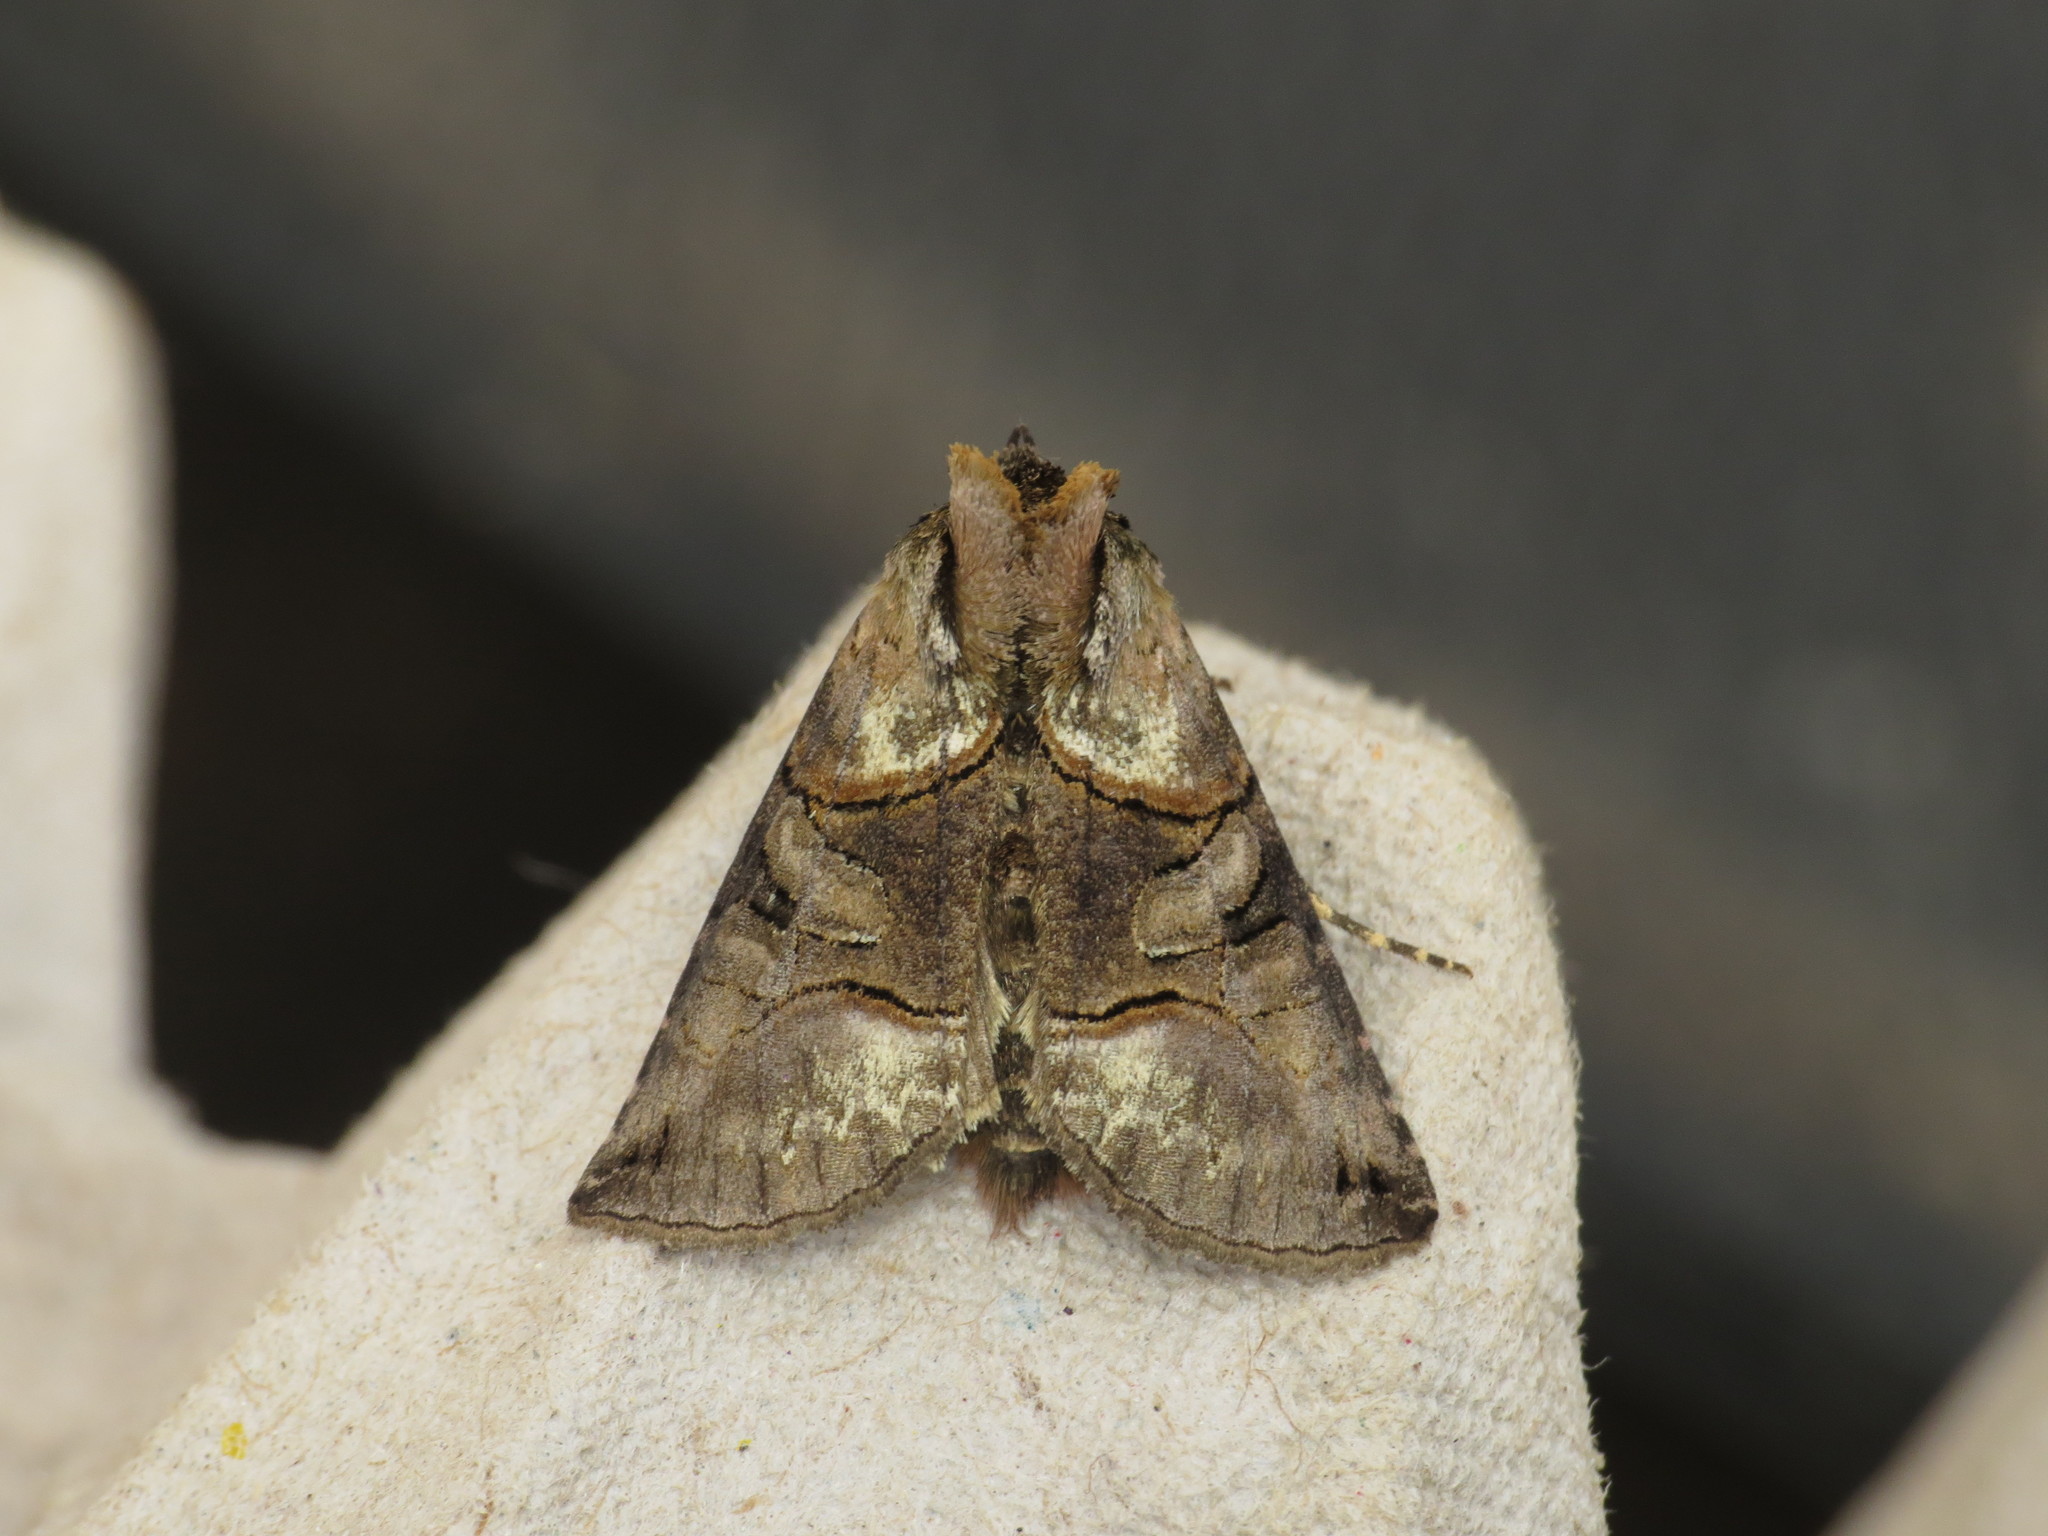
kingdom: Animalia
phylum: Arthropoda
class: Insecta
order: Lepidoptera
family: Noctuidae
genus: Abrostola
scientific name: Abrostola tripartita
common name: Spectacle
